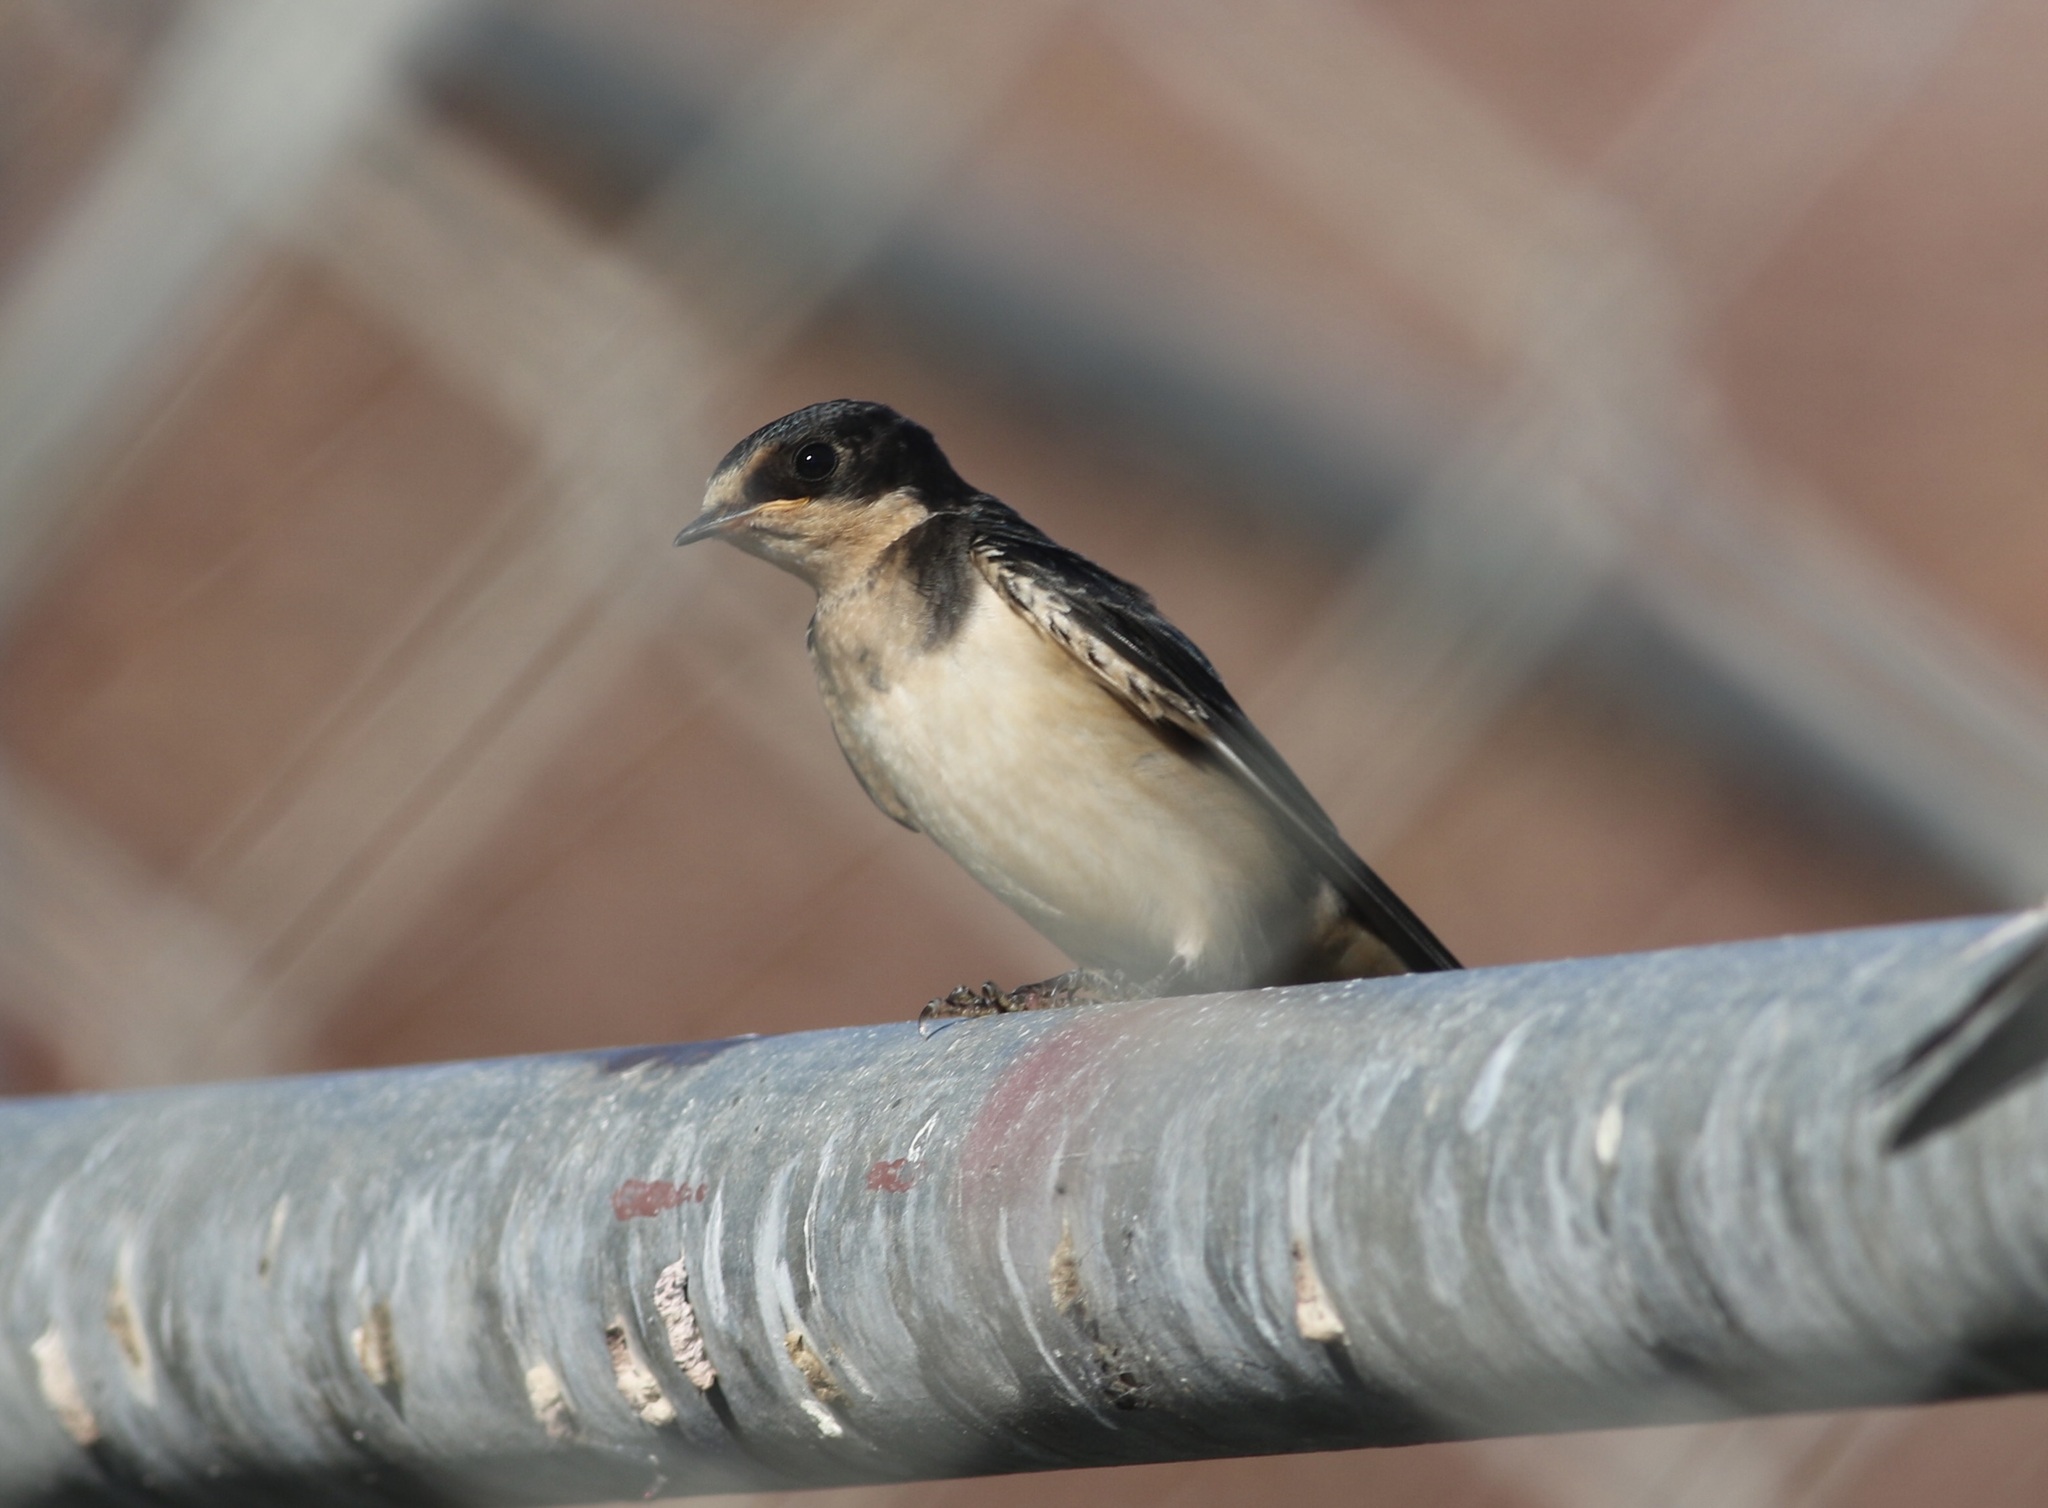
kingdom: Animalia
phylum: Chordata
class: Aves
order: Passeriformes
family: Hirundinidae
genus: Hirundo
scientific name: Hirundo rustica
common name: Barn swallow
